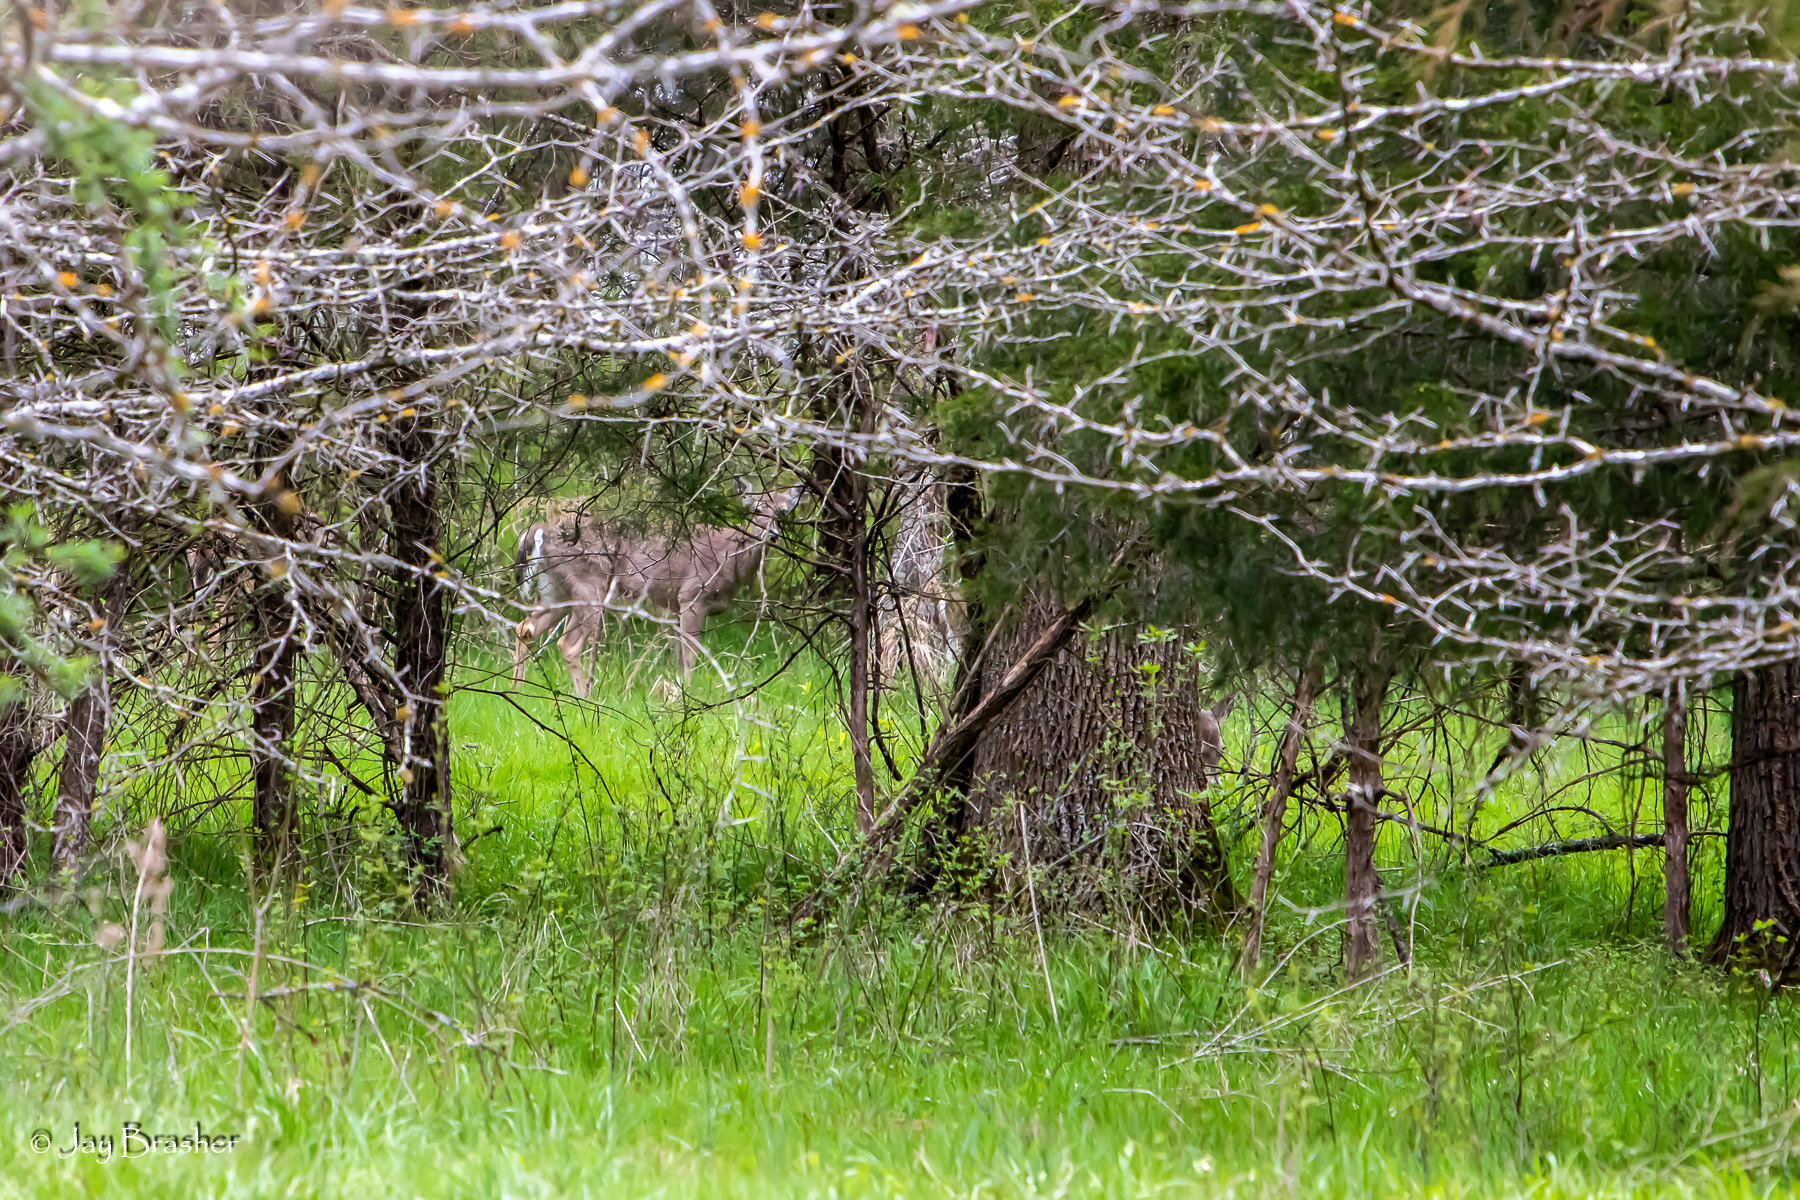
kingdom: Animalia
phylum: Chordata
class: Mammalia
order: Artiodactyla
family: Cervidae
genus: Odocoileus
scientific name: Odocoileus virginianus
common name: White-tailed deer
